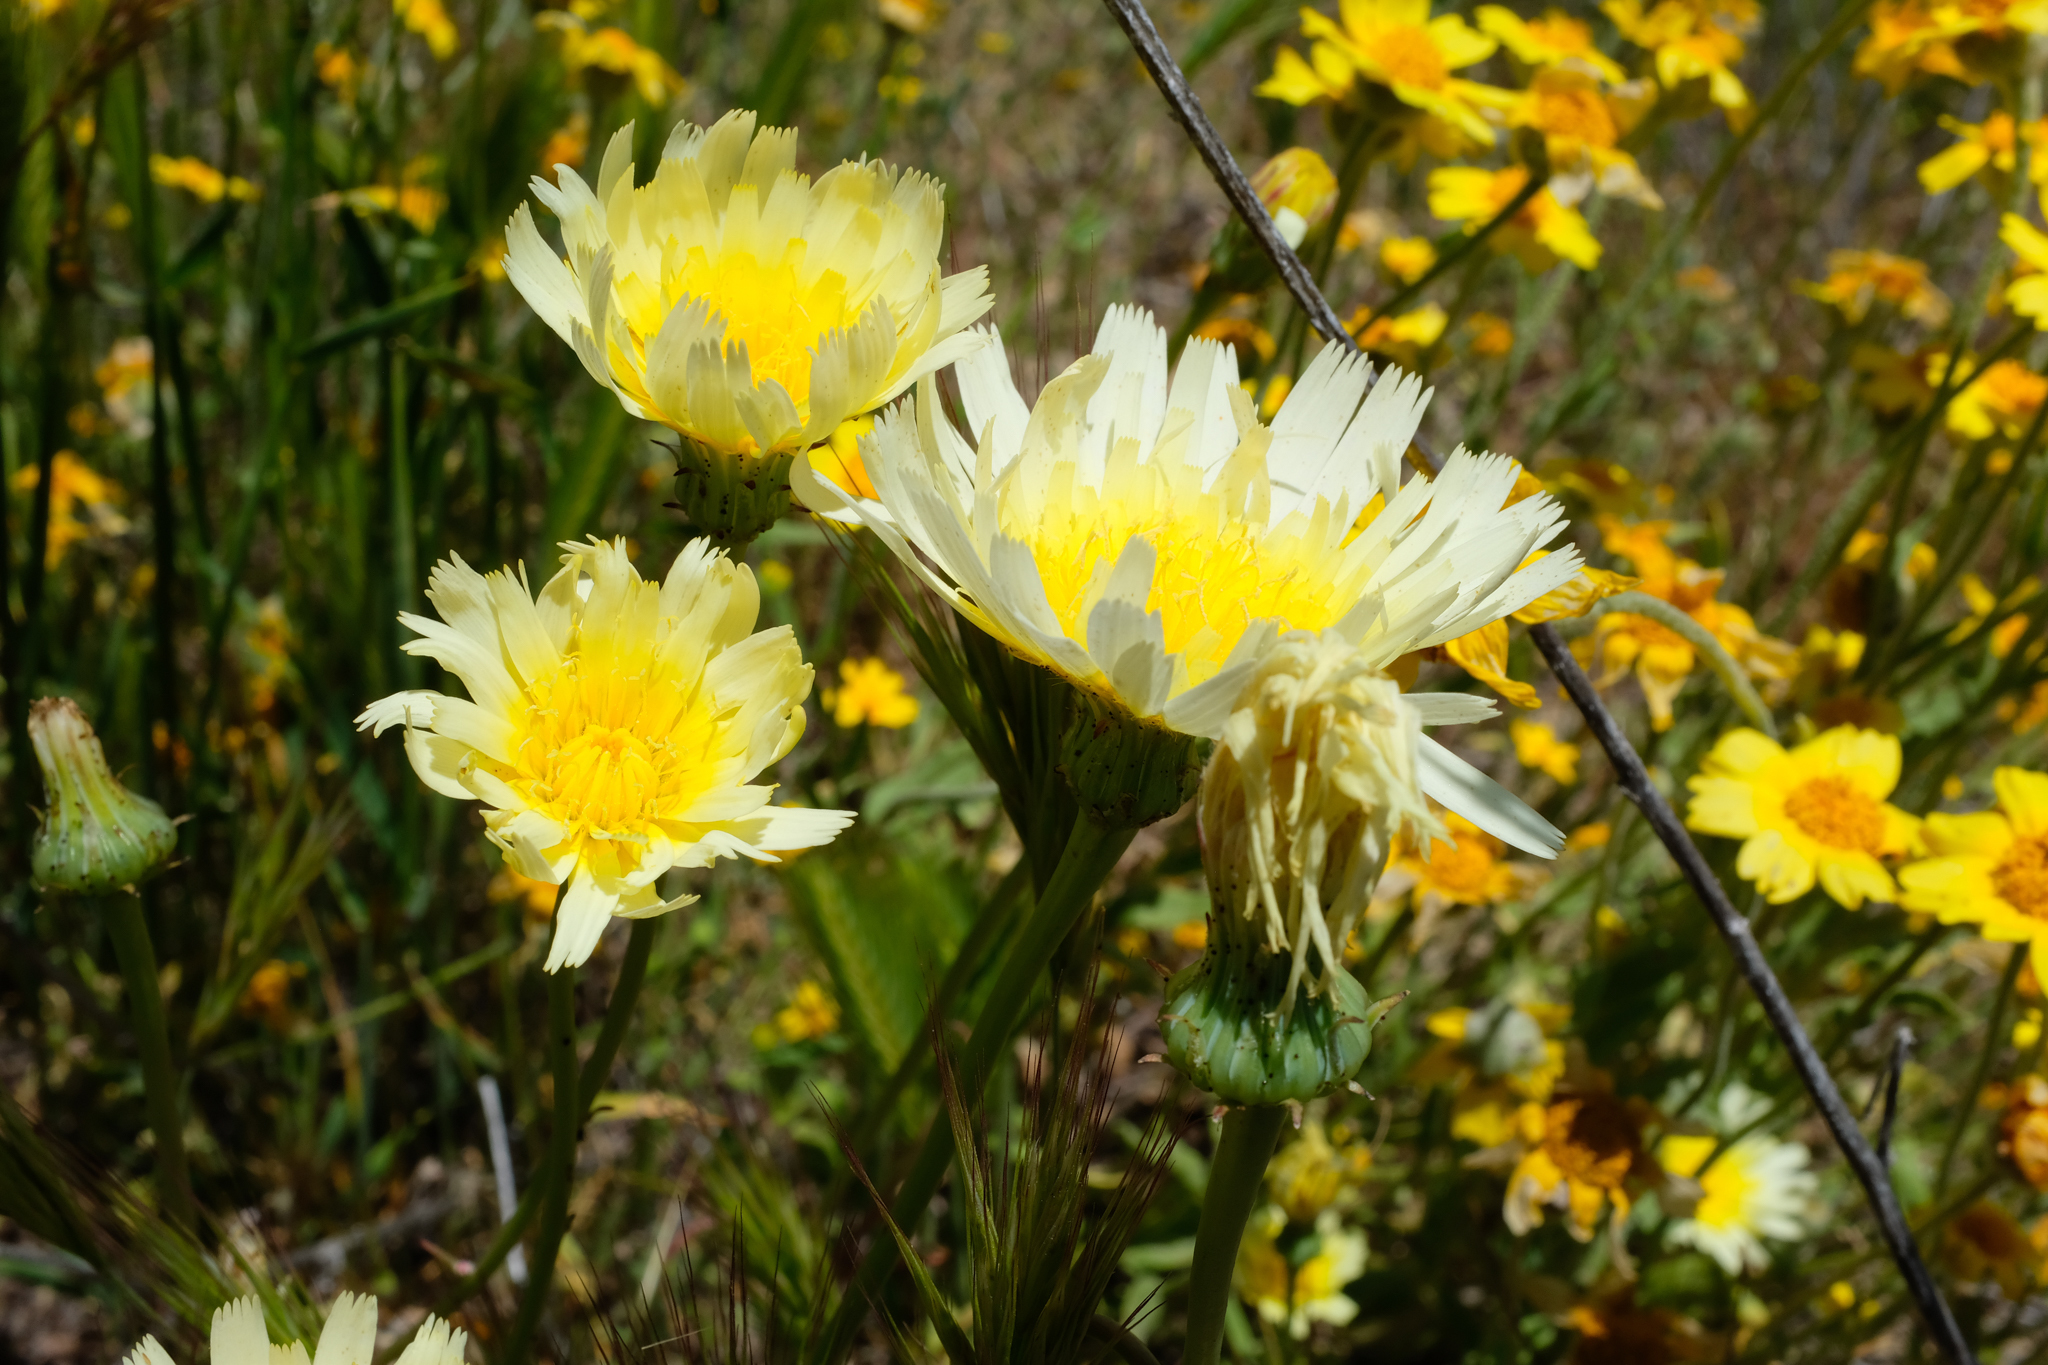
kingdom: Plantae
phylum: Tracheophyta
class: Magnoliopsida
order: Asterales
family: Asteraceae
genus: Malacothrix
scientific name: Malacothrix glabrata
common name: Smooth desert-dandelion
